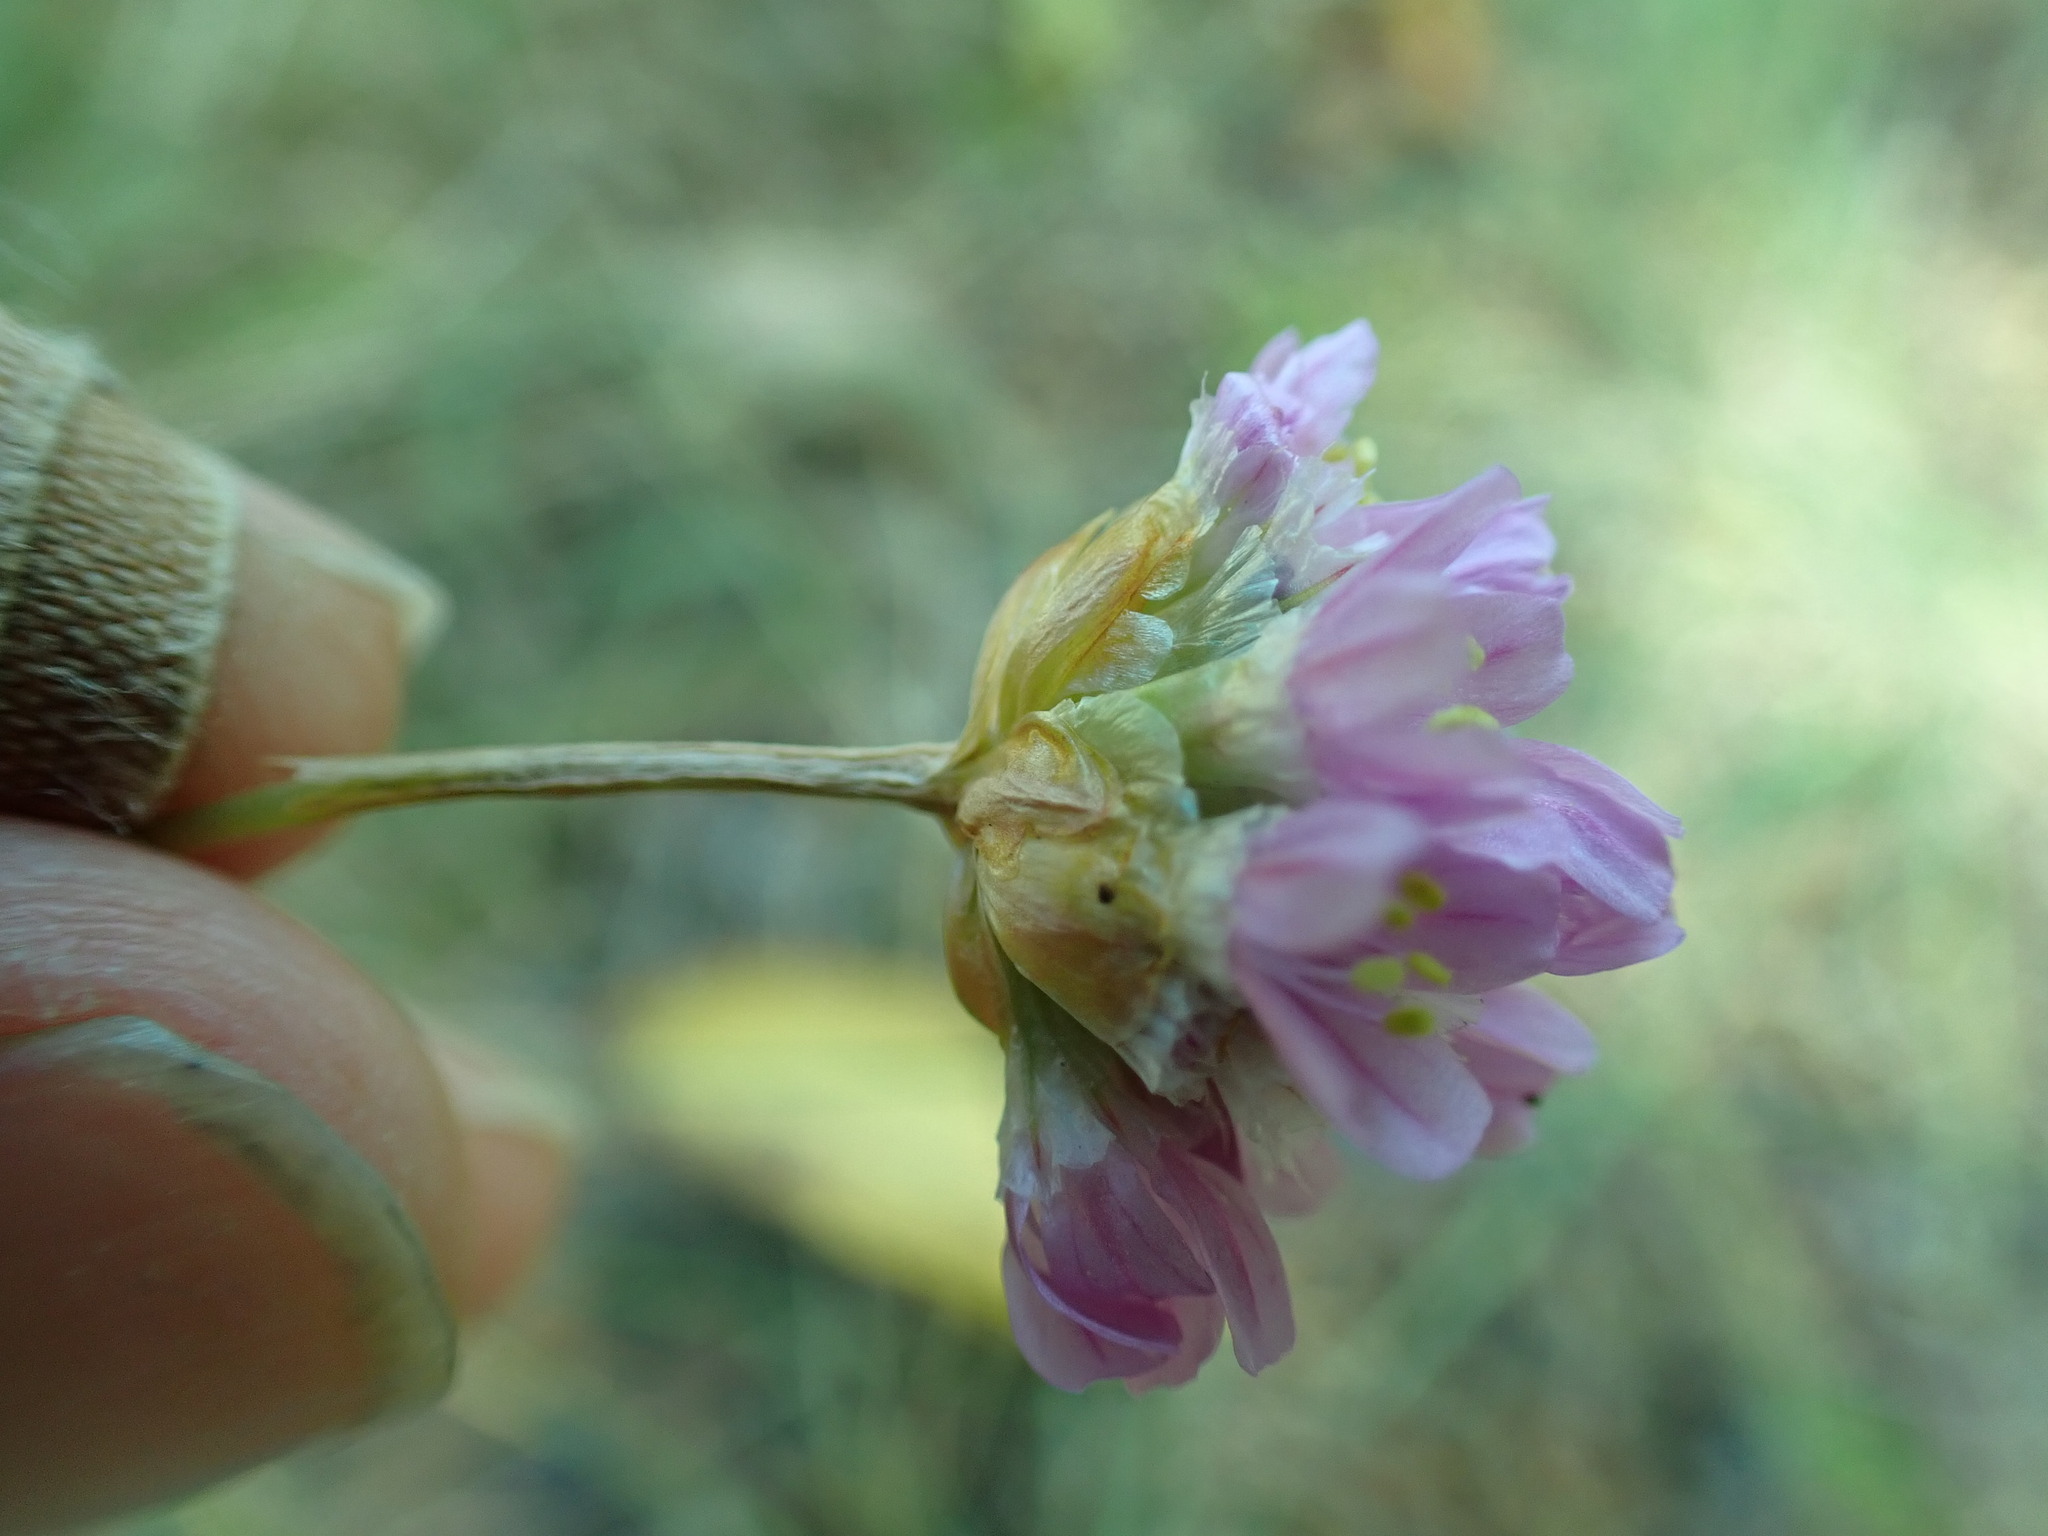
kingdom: Plantae
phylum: Tracheophyta
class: Magnoliopsida
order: Caryophyllales
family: Plumbaginaceae
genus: Armeria
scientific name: Armeria maritima
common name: Thrift
